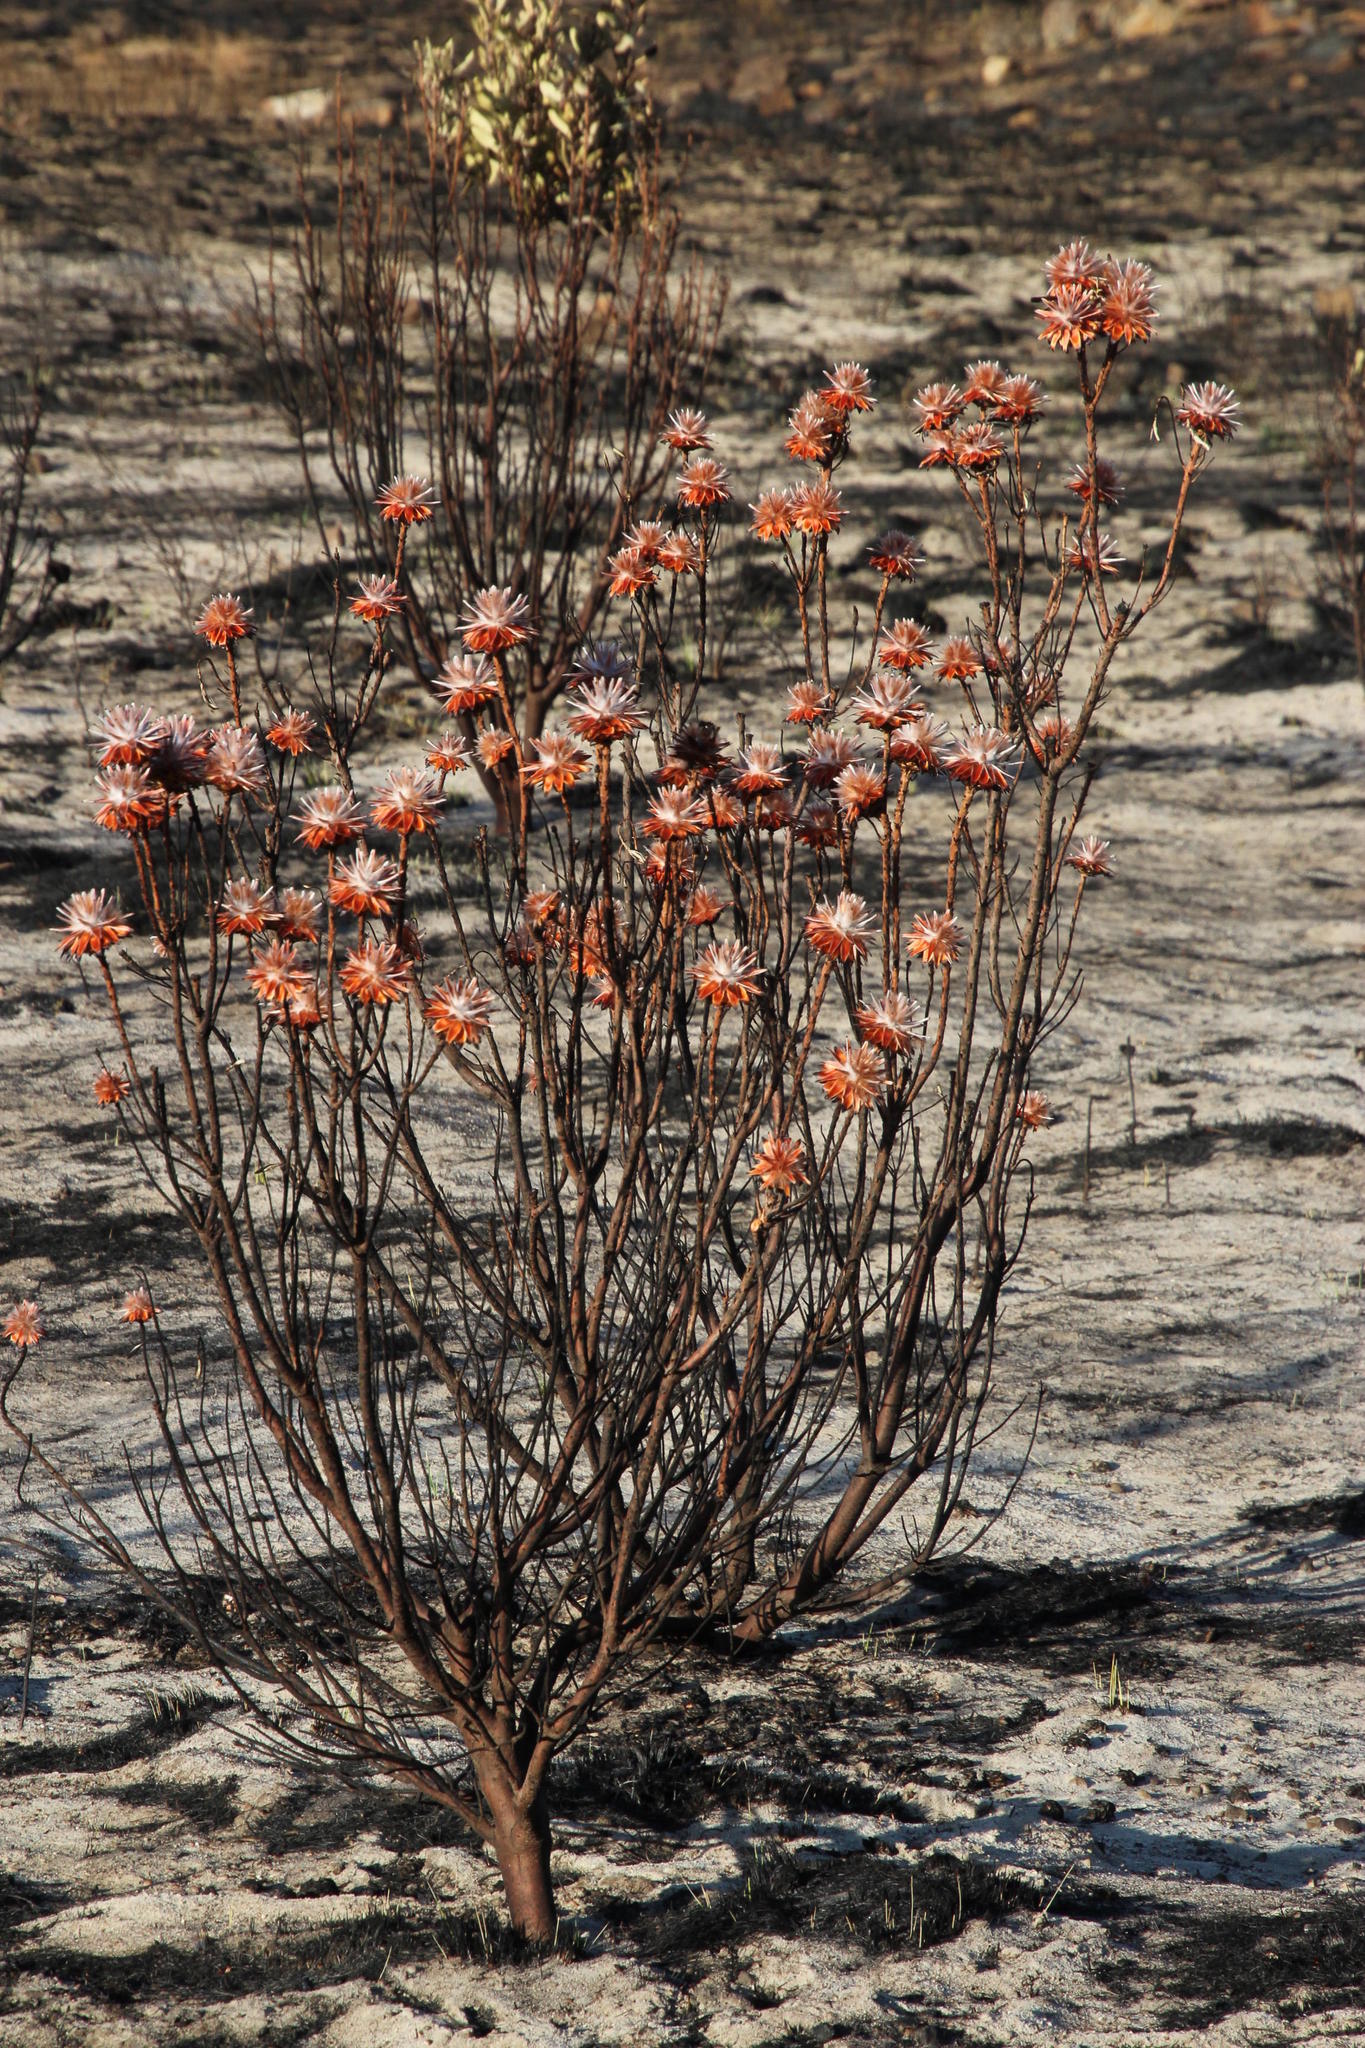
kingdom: Plantae
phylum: Tracheophyta
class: Magnoliopsida
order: Proteales
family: Proteaceae
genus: Leucadendron
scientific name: Leucadendron rubrum
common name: Spinning top
